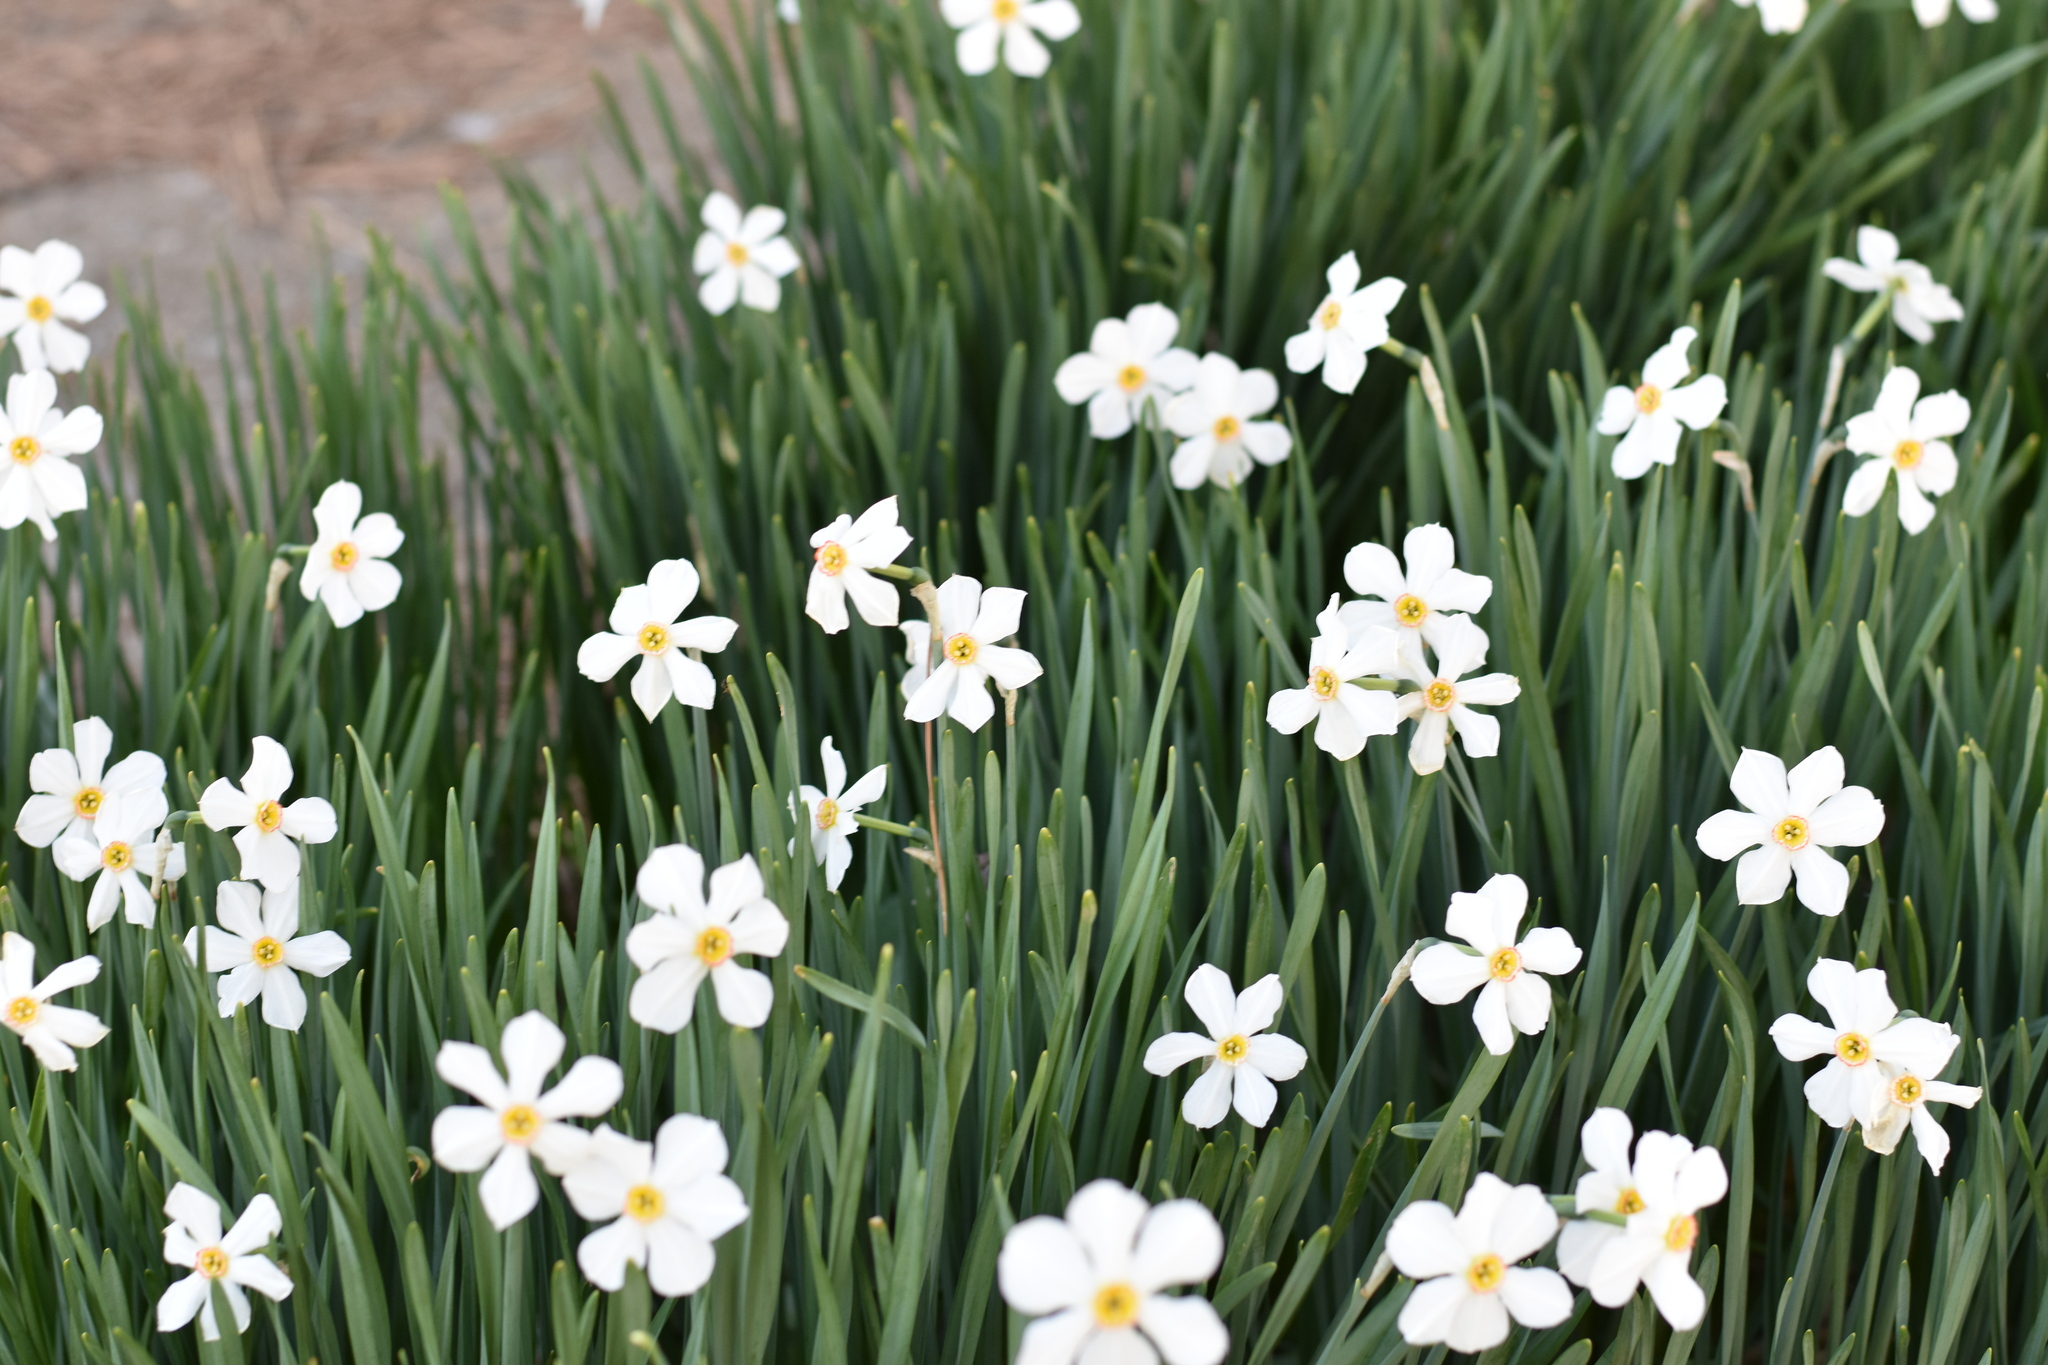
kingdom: Plantae
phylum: Tracheophyta
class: Liliopsida
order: Asparagales
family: Amaryllidaceae
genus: Narcissus
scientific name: Narcissus poeticus
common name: Pheasant's-eye daffodil
